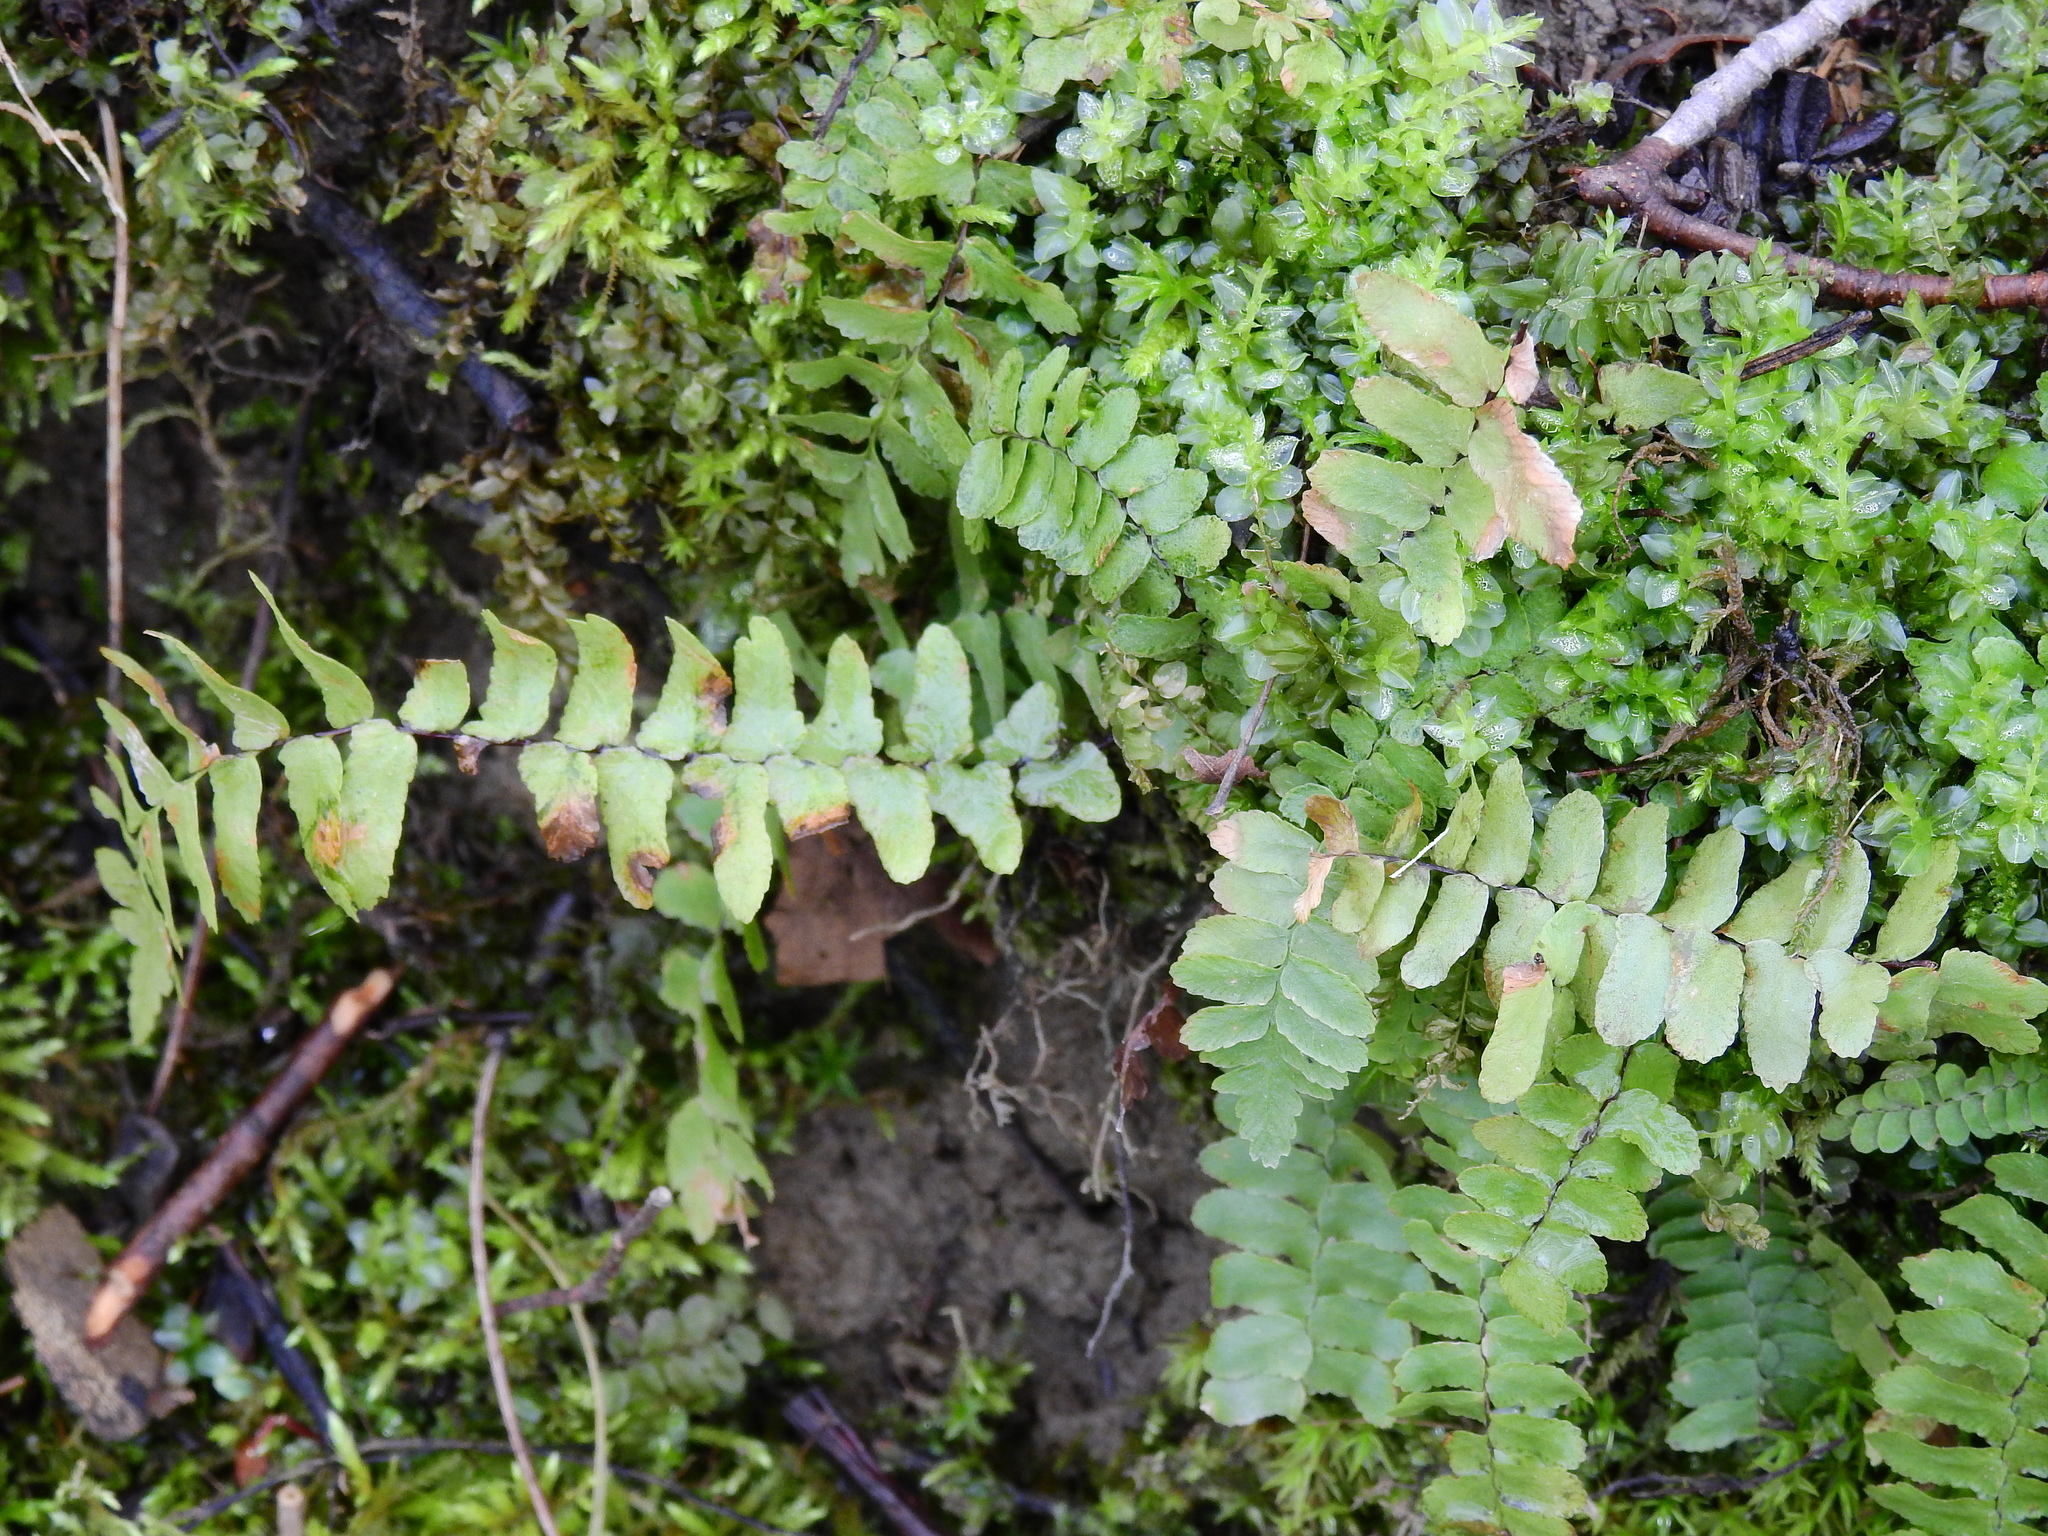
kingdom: Plantae
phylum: Tracheophyta
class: Polypodiopsida
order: Polypodiales
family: Aspleniaceae
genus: Asplenium
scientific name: Asplenium platyneuron
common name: Ebony spleenwort
